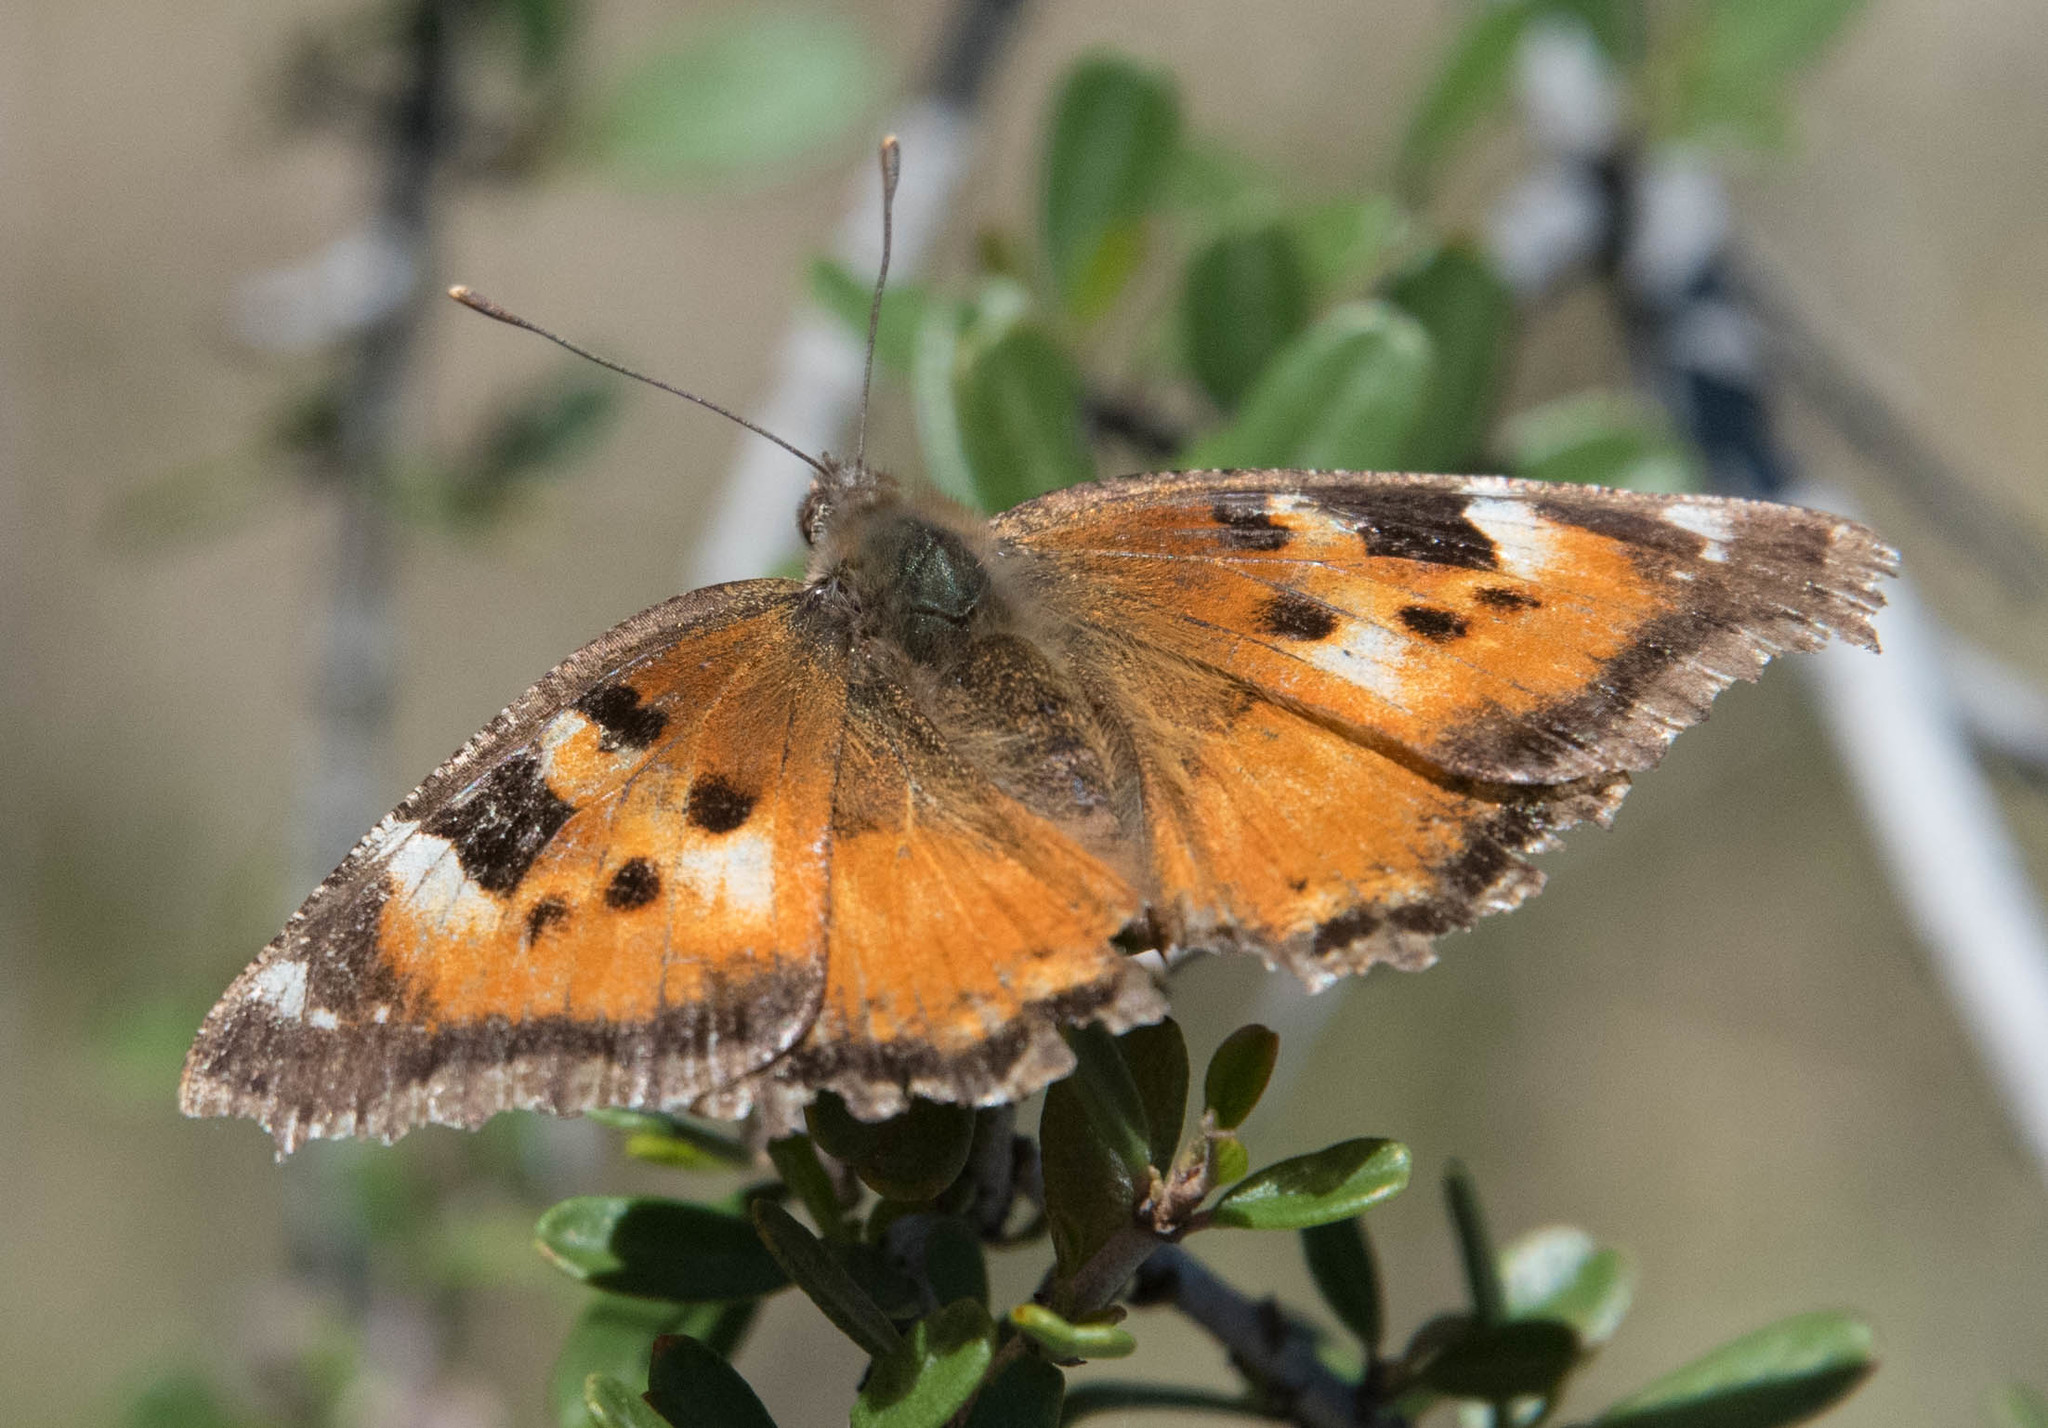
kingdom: Animalia
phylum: Arthropoda
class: Insecta
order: Lepidoptera
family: Nymphalidae
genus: Nymphalis
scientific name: Nymphalis californica
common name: California tortoiseshell
